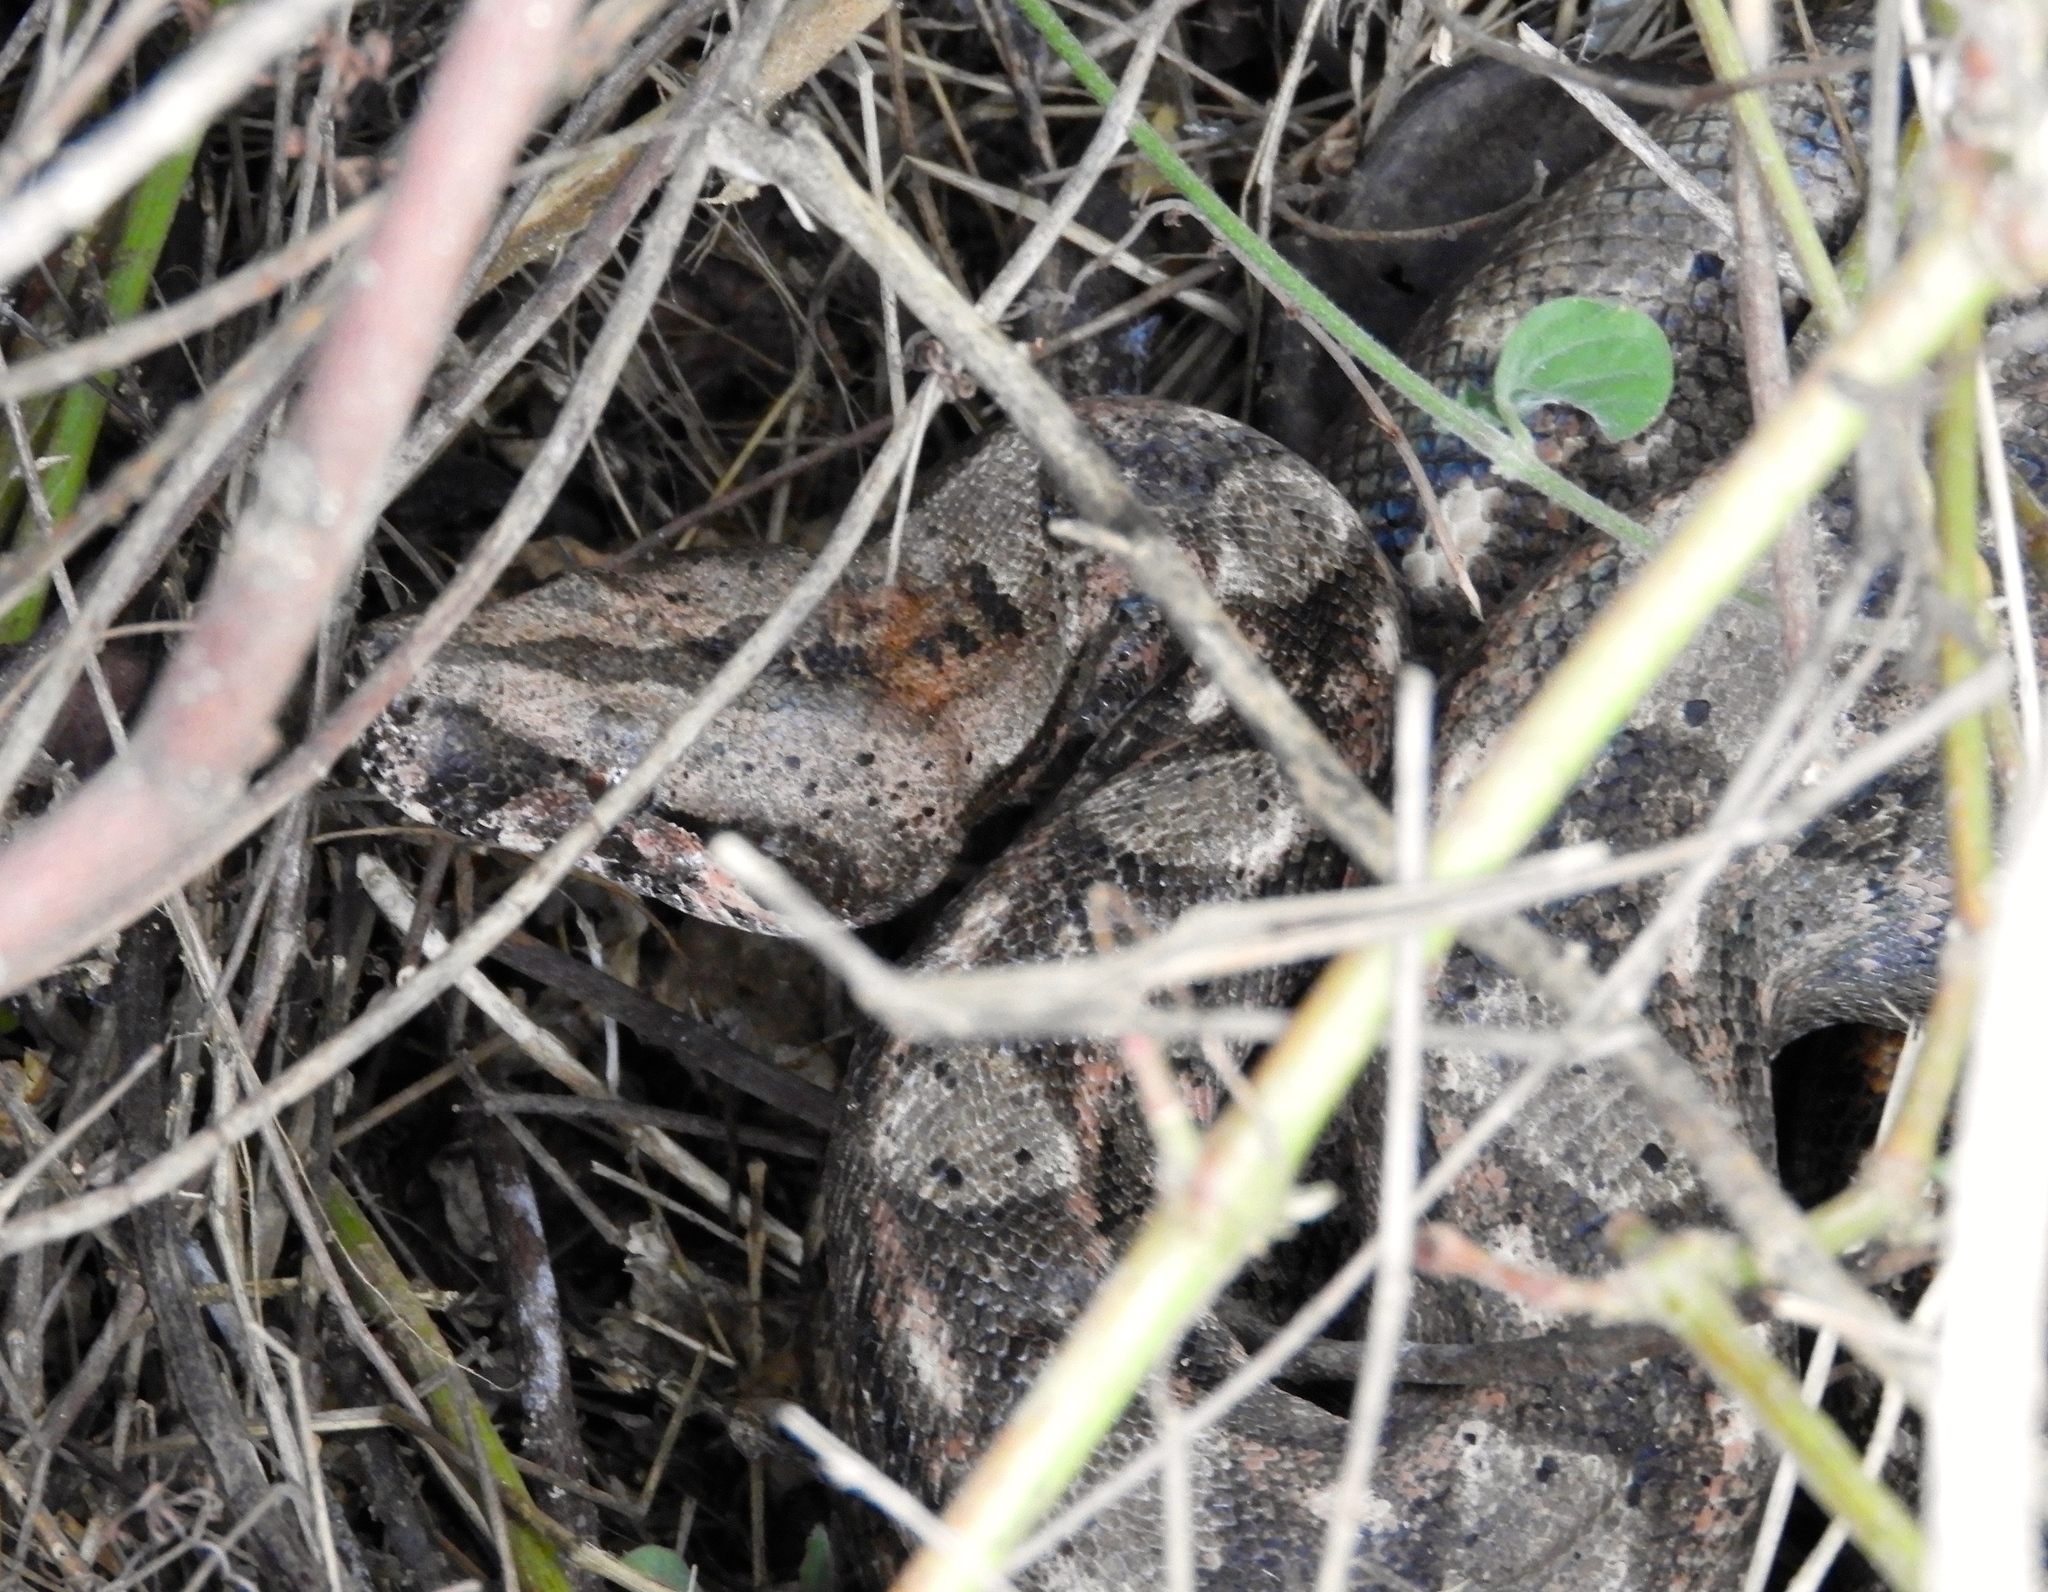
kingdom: Animalia
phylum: Chordata
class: Squamata
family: Boidae
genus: Boa
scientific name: Boa
